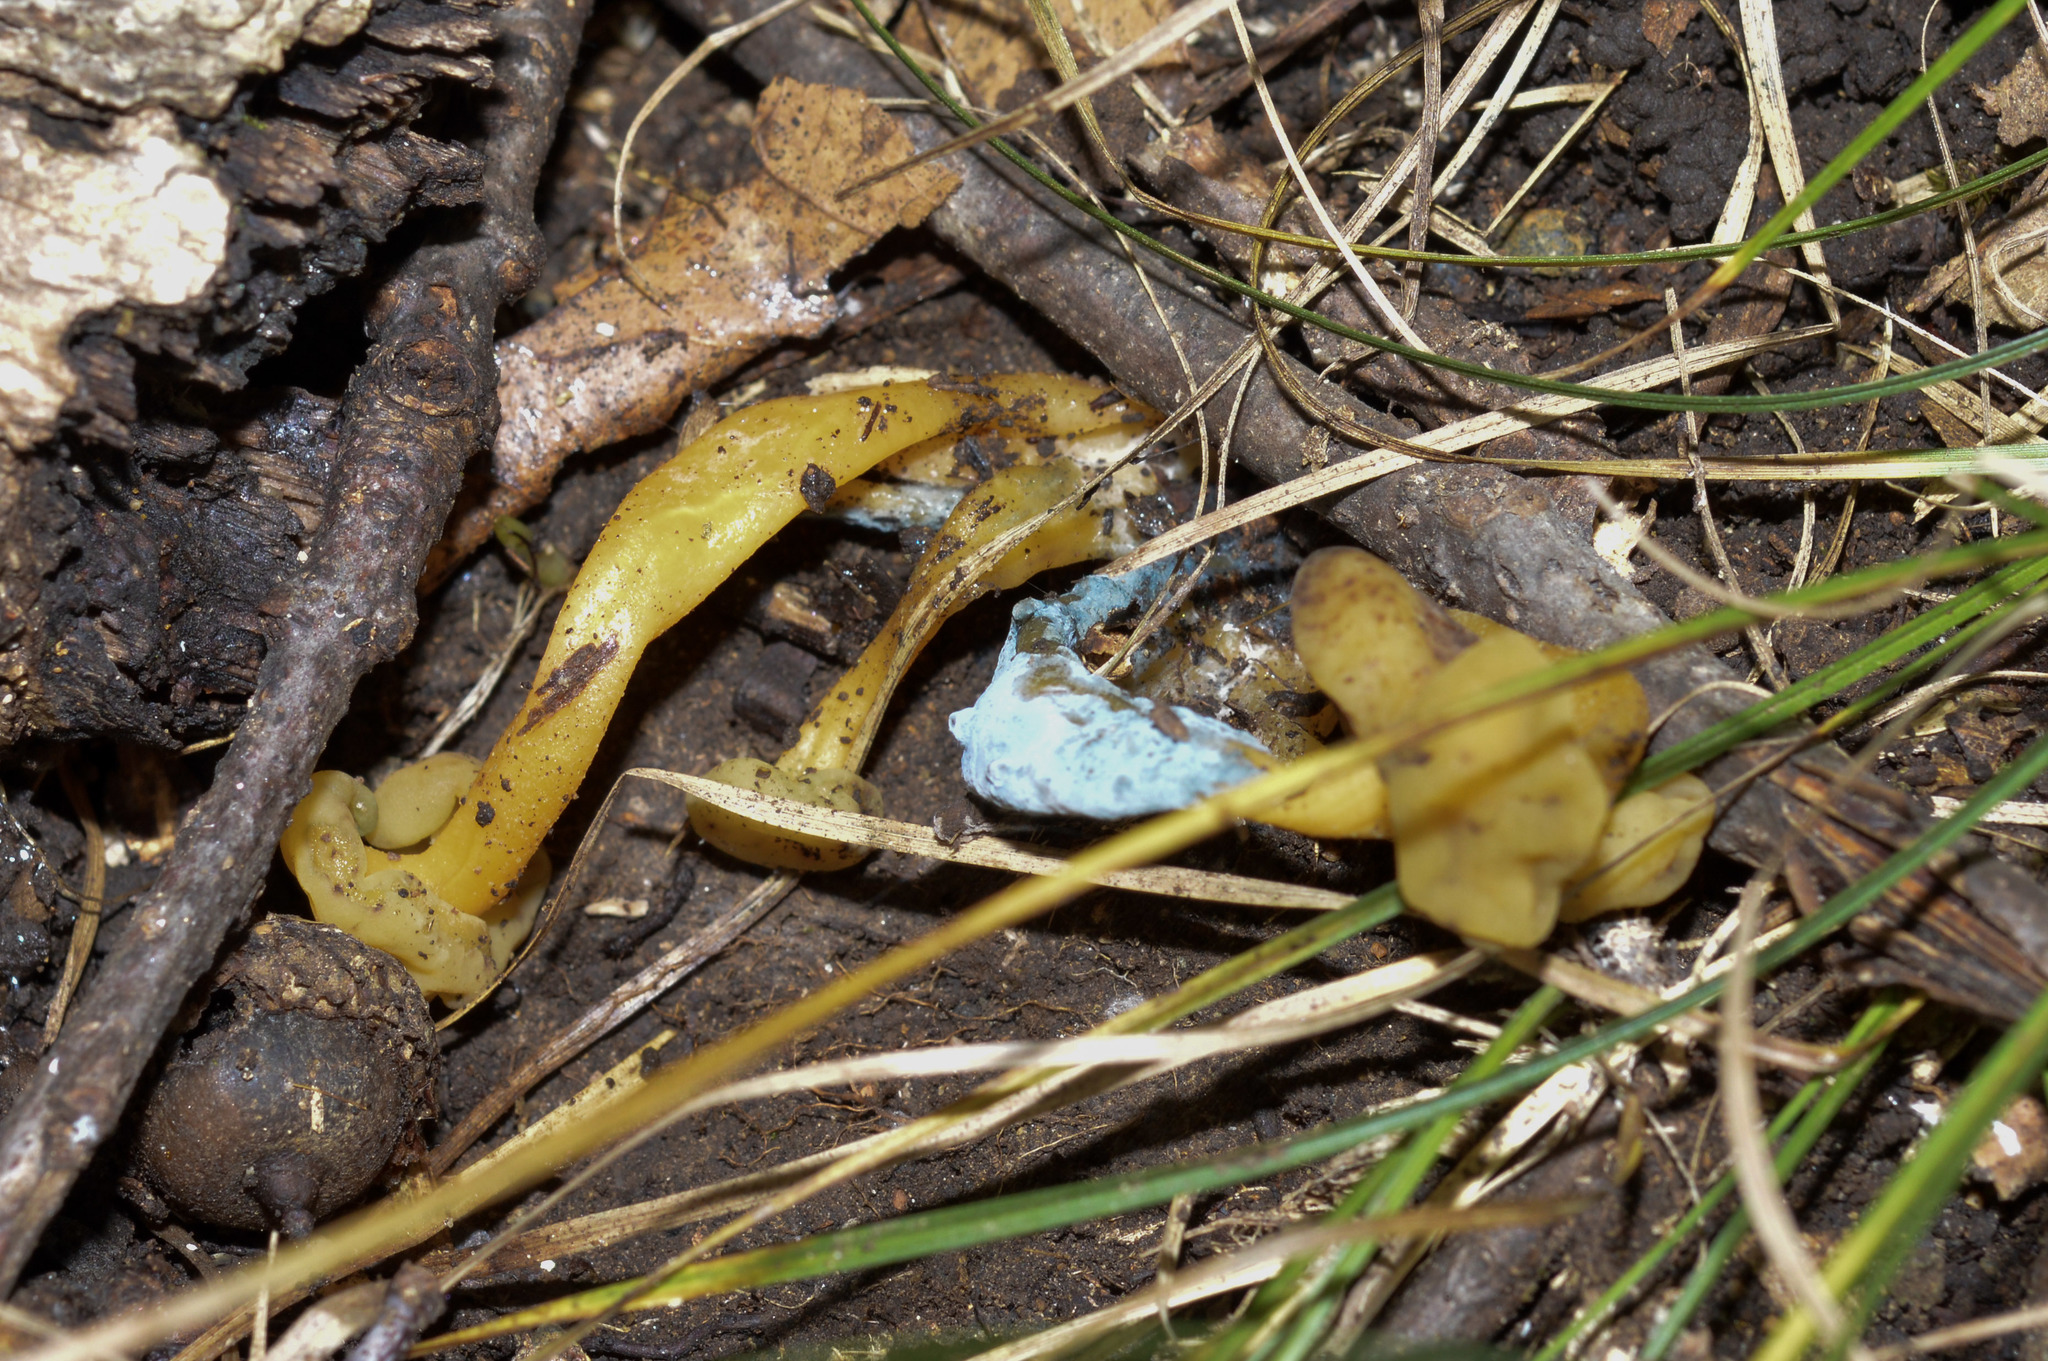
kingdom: Fungi
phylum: Ascomycota
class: Leotiomycetes
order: Leotiales
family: Leotiaceae
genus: Leotia
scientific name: Leotia lubrica
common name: Jellybaby
